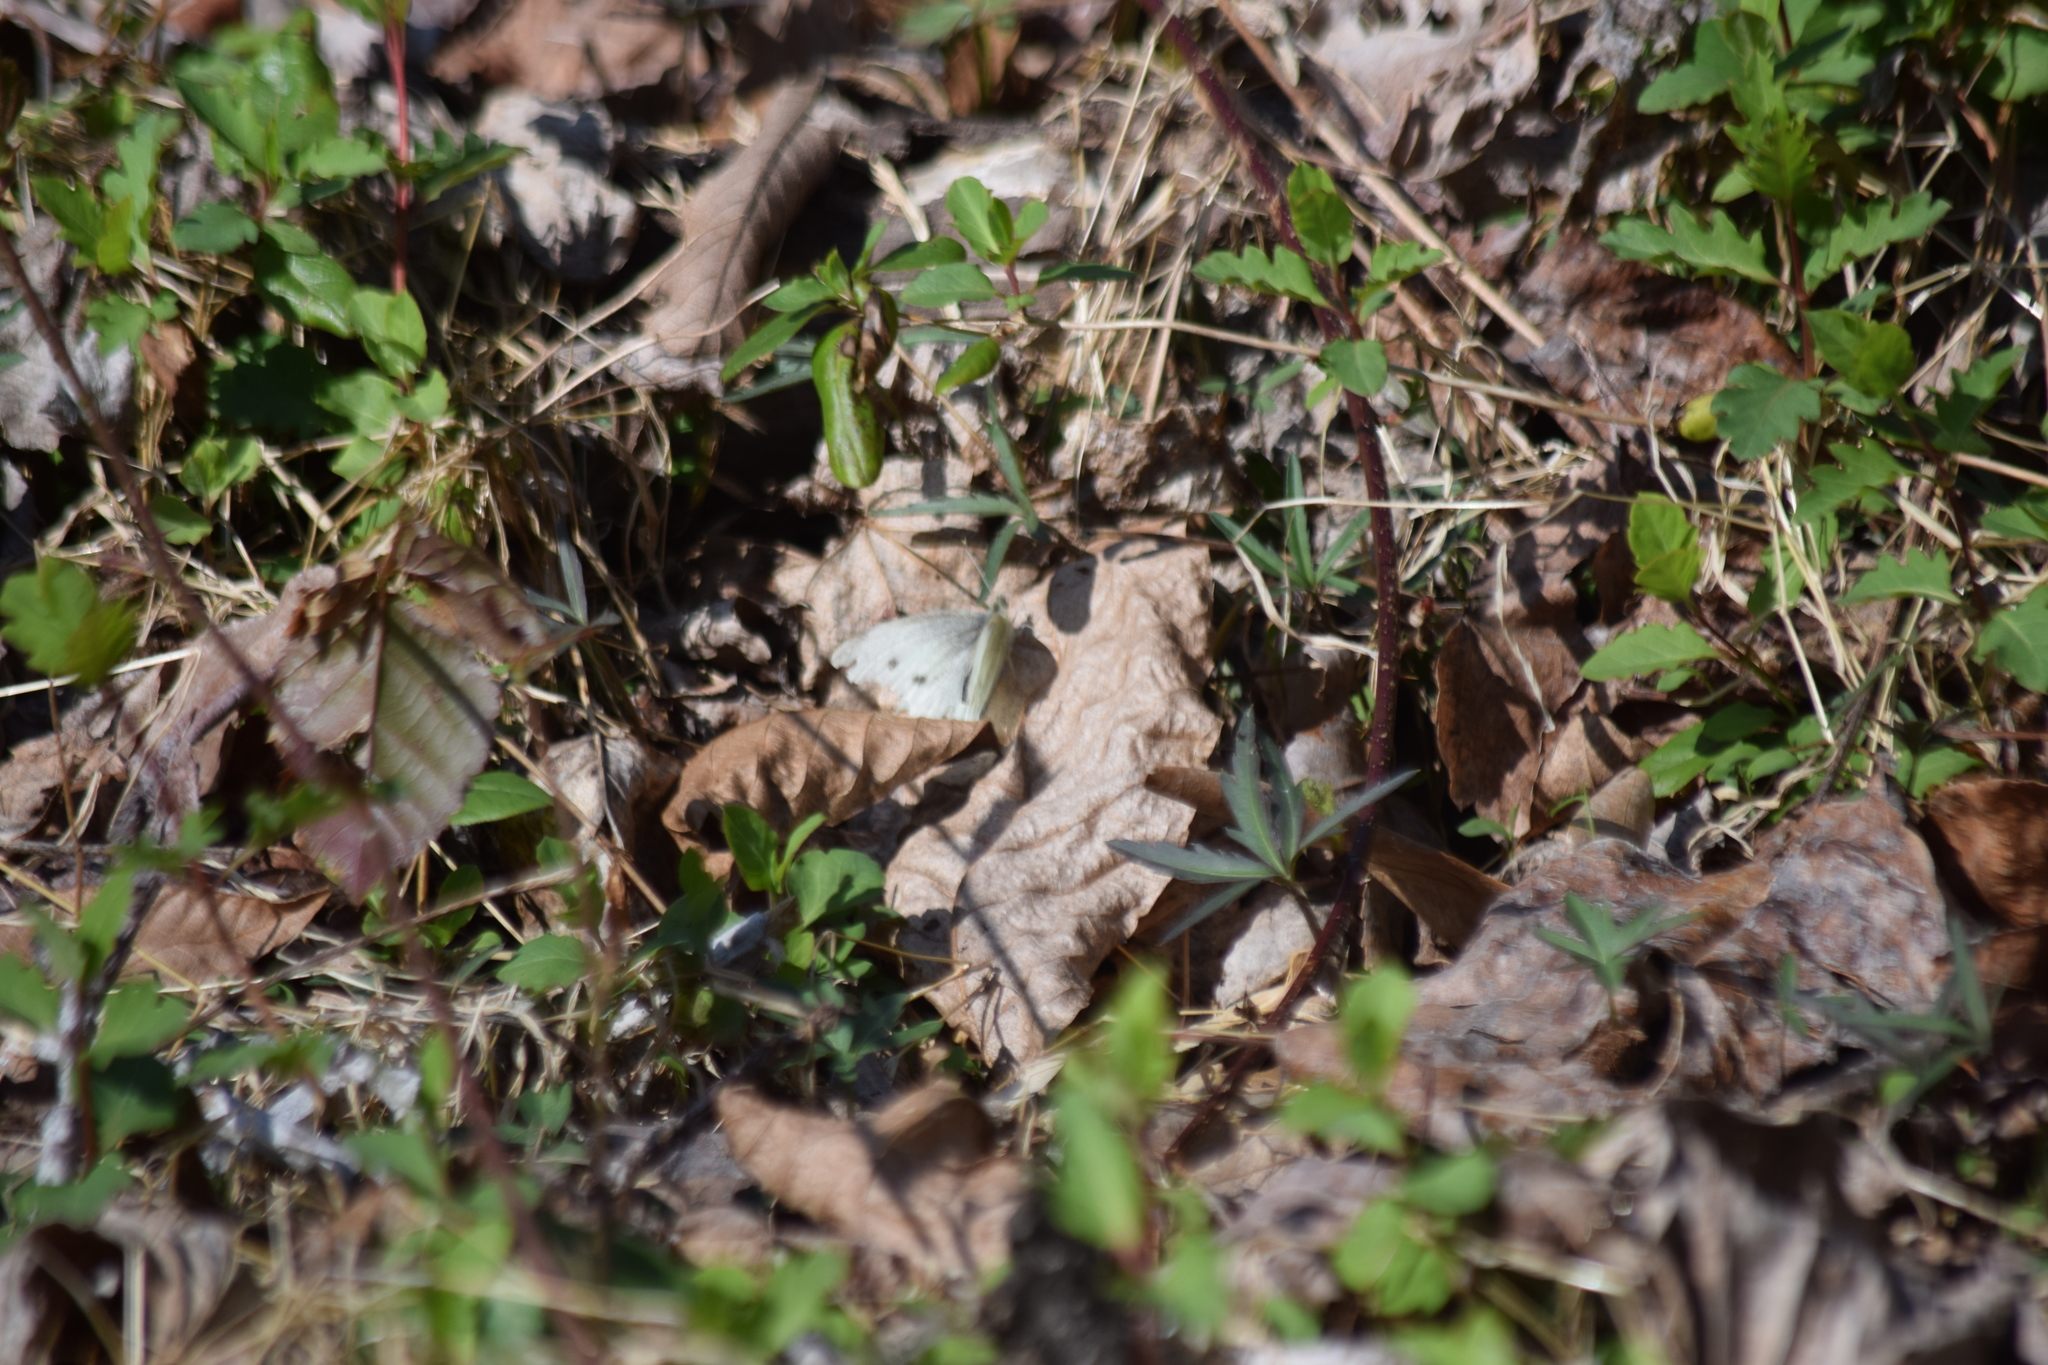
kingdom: Animalia
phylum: Arthropoda
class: Insecta
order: Lepidoptera
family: Pieridae
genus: Pieris
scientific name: Pieris rapae
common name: Small white
